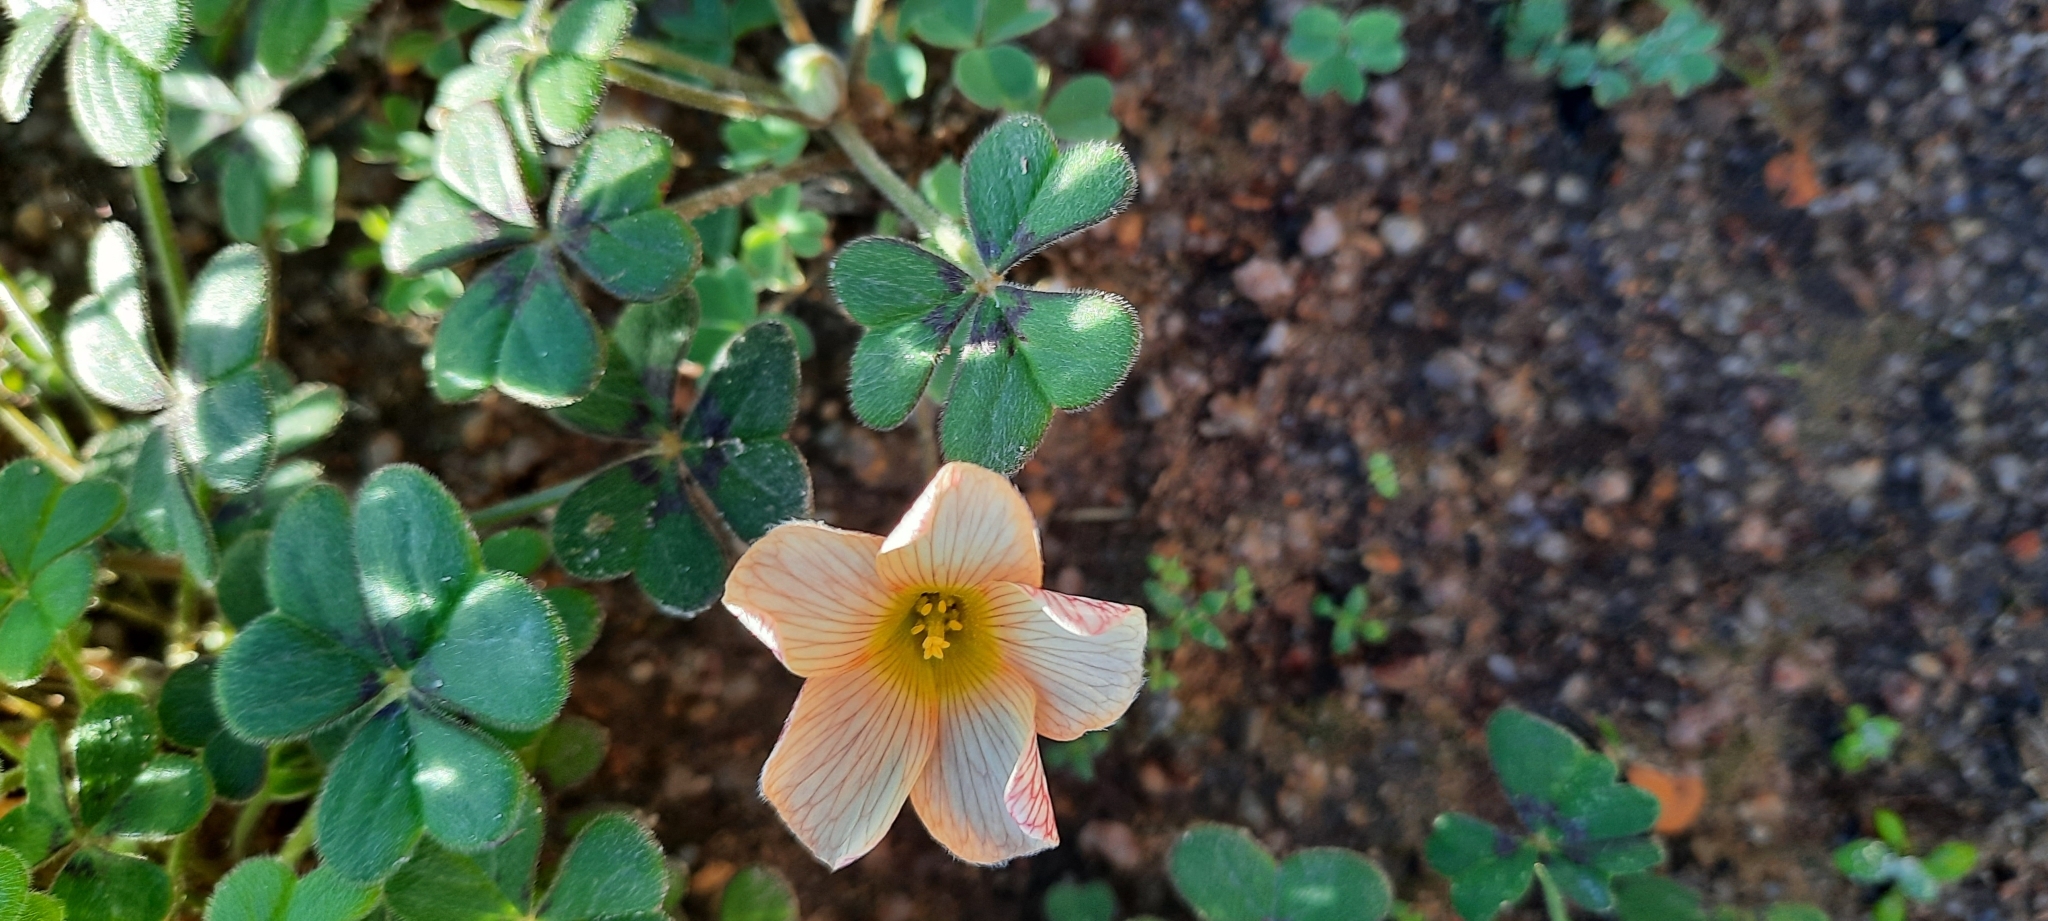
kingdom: Plantae
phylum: Tracheophyta
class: Magnoliopsida
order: Oxalidales
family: Oxalidaceae
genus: Oxalis
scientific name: Oxalis obtusa
